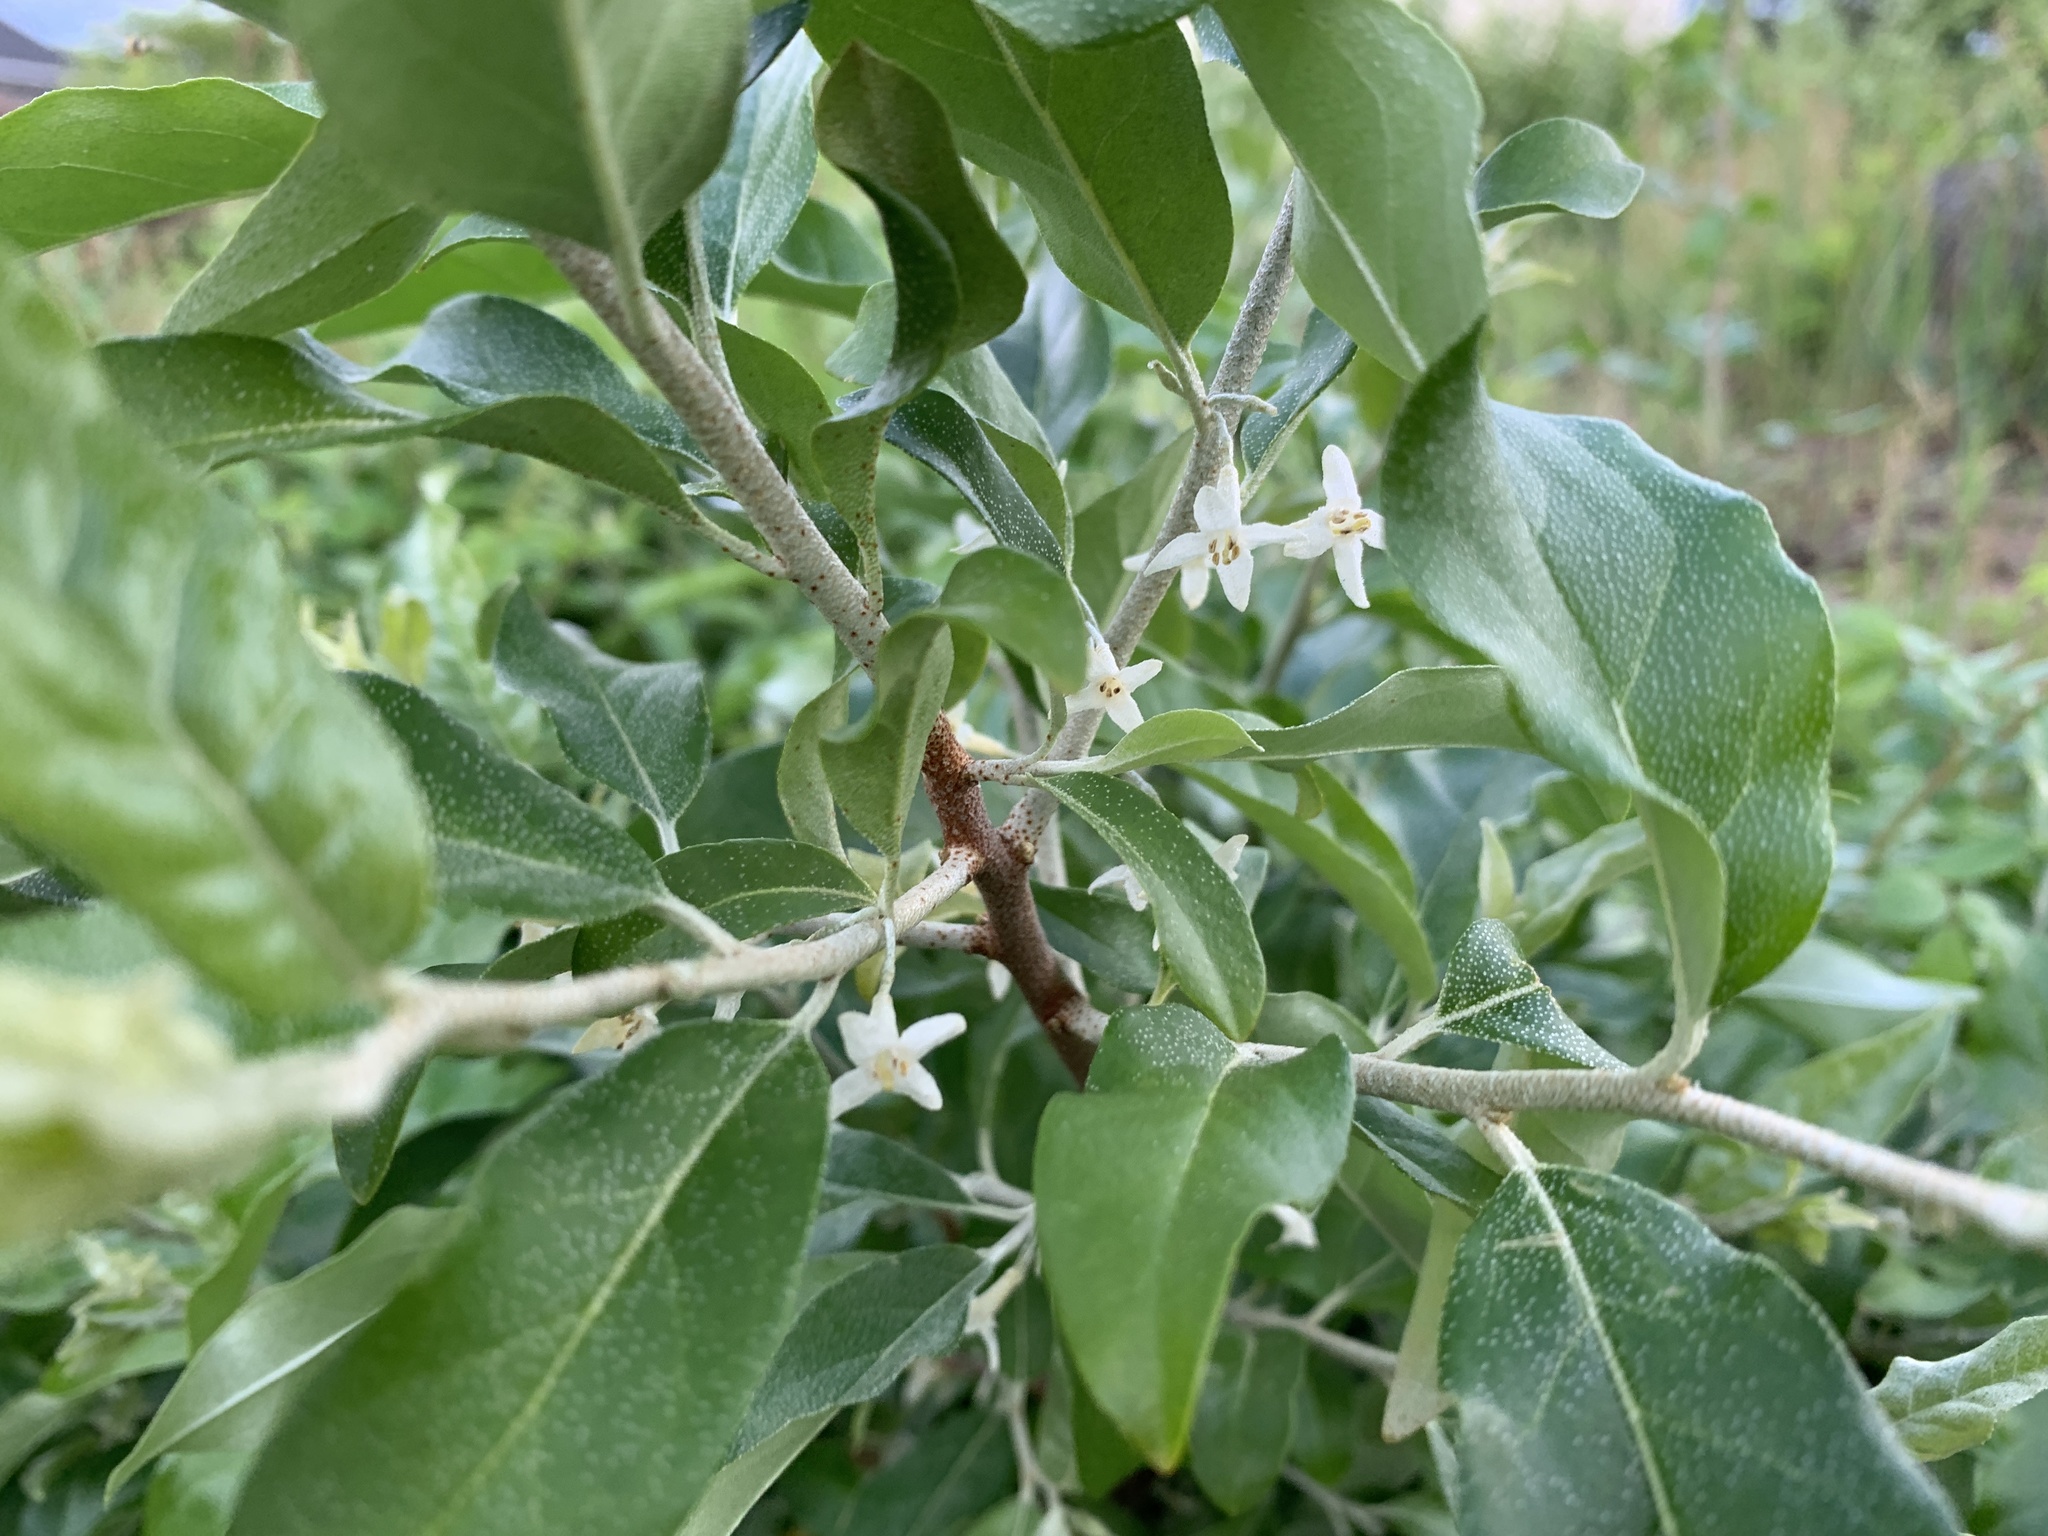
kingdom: Plantae
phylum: Tracheophyta
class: Magnoliopsida
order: Rosales
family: Elaeagnaceae
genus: Elaeagnus
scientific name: Elaeagnus umbellata
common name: Autumn olive
